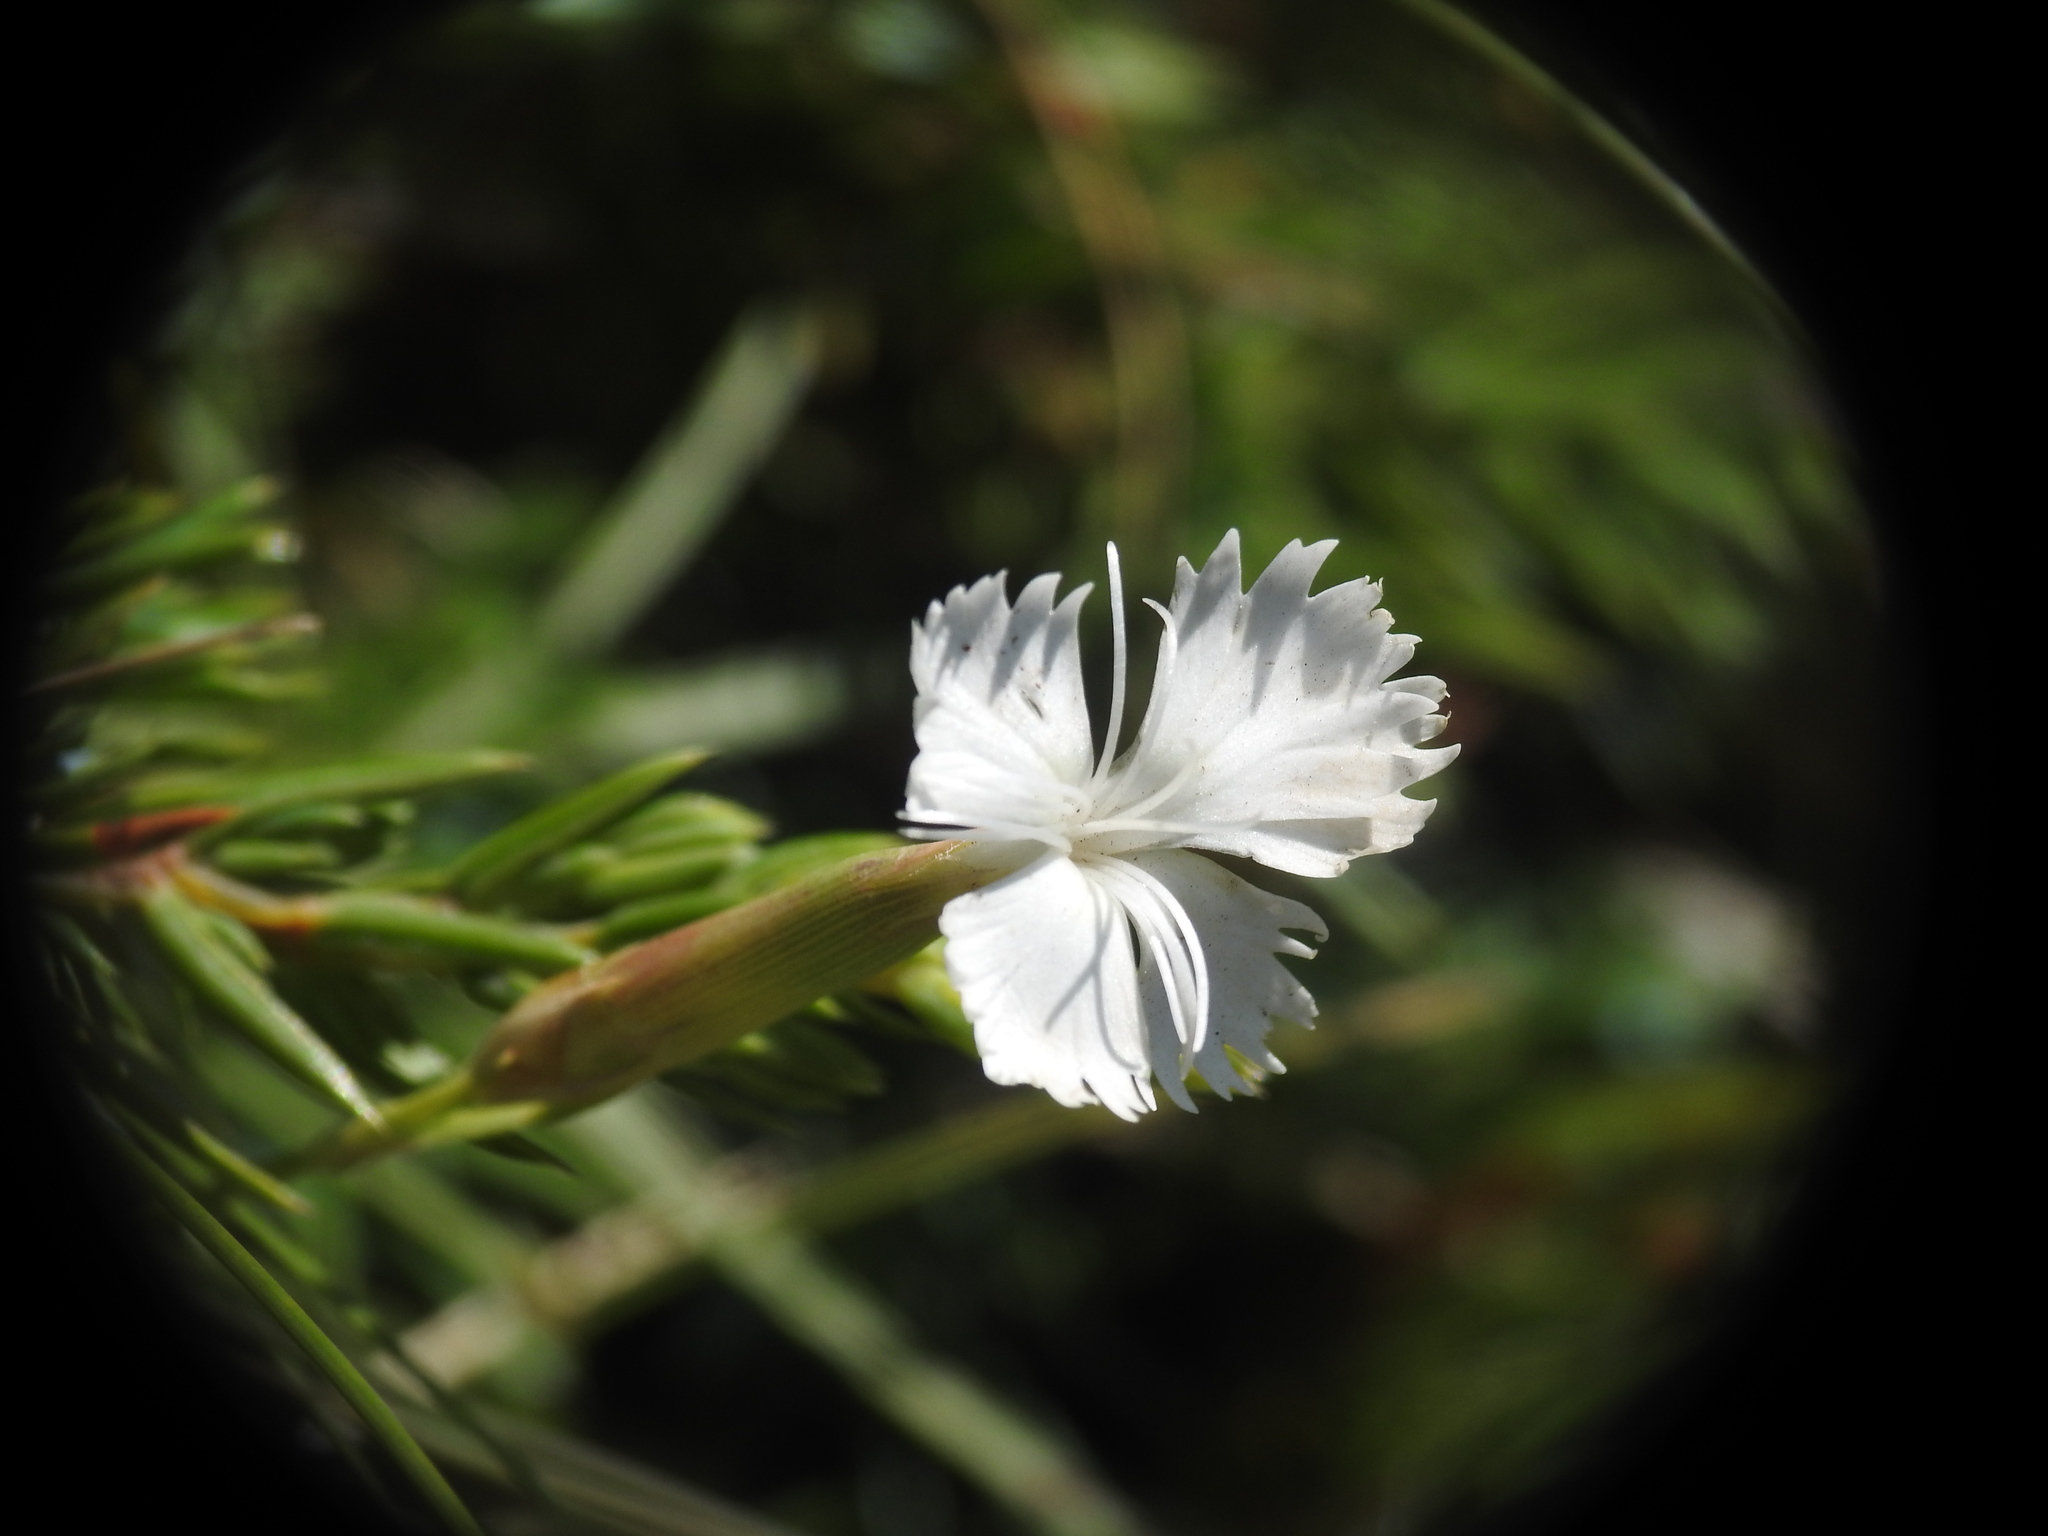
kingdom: Plantae
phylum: Tracheophyta
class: Magnoliopsida
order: Caryophyllales
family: Caryophyllaceae
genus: Dianthus
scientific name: Dianthus petraeus
